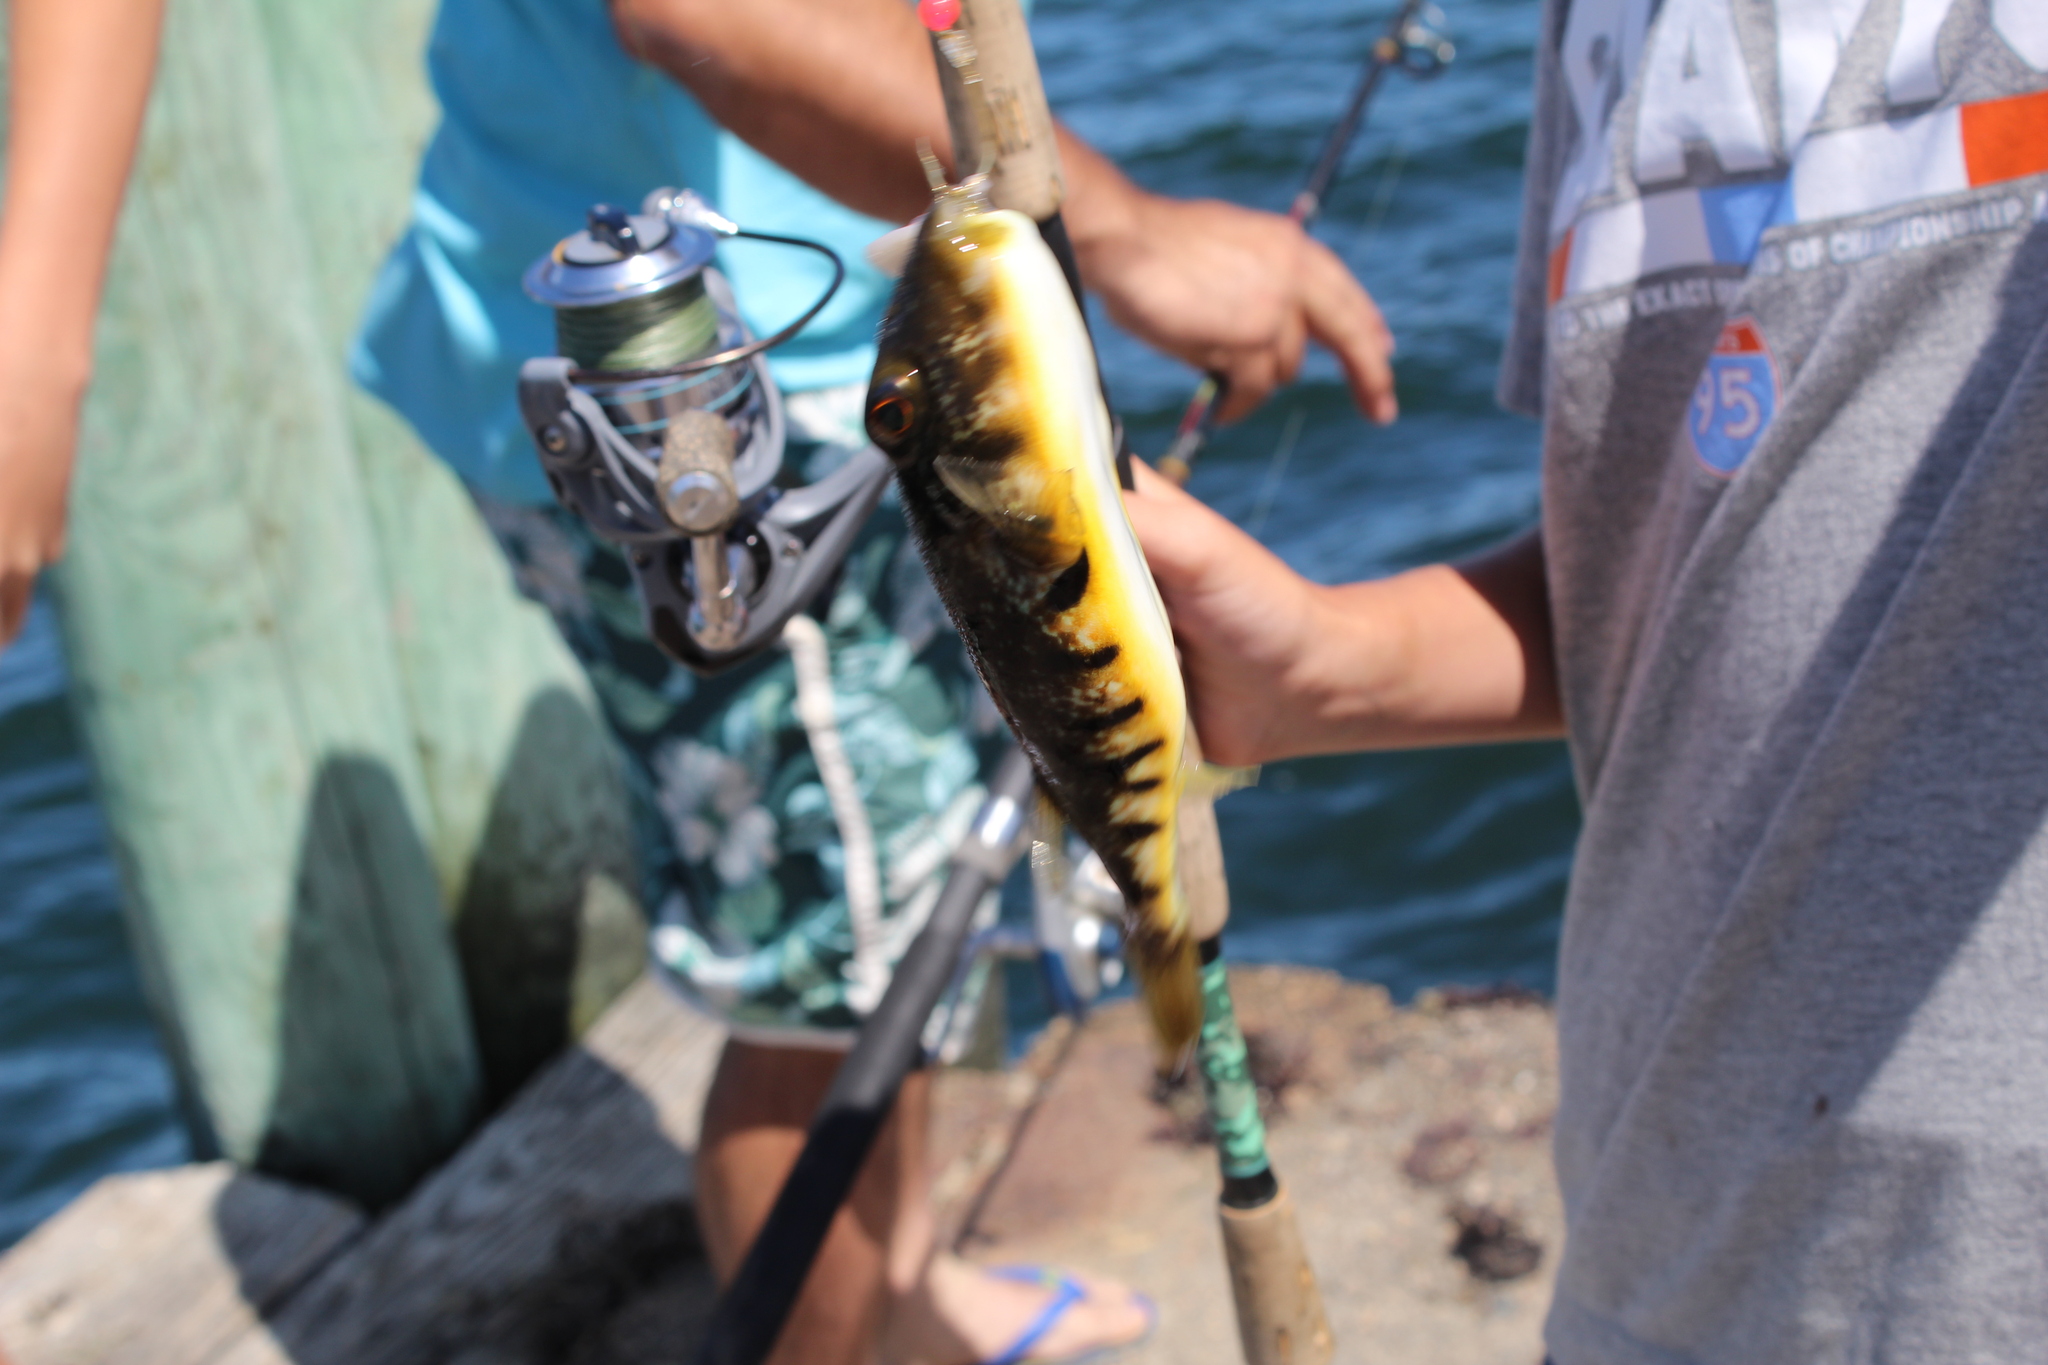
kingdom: Animalia
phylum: Chordata
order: Tetraodontiformes
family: Tetraodontidae
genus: Sphoeroides
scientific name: Sphoeroides maculatus
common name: Northern puffer
